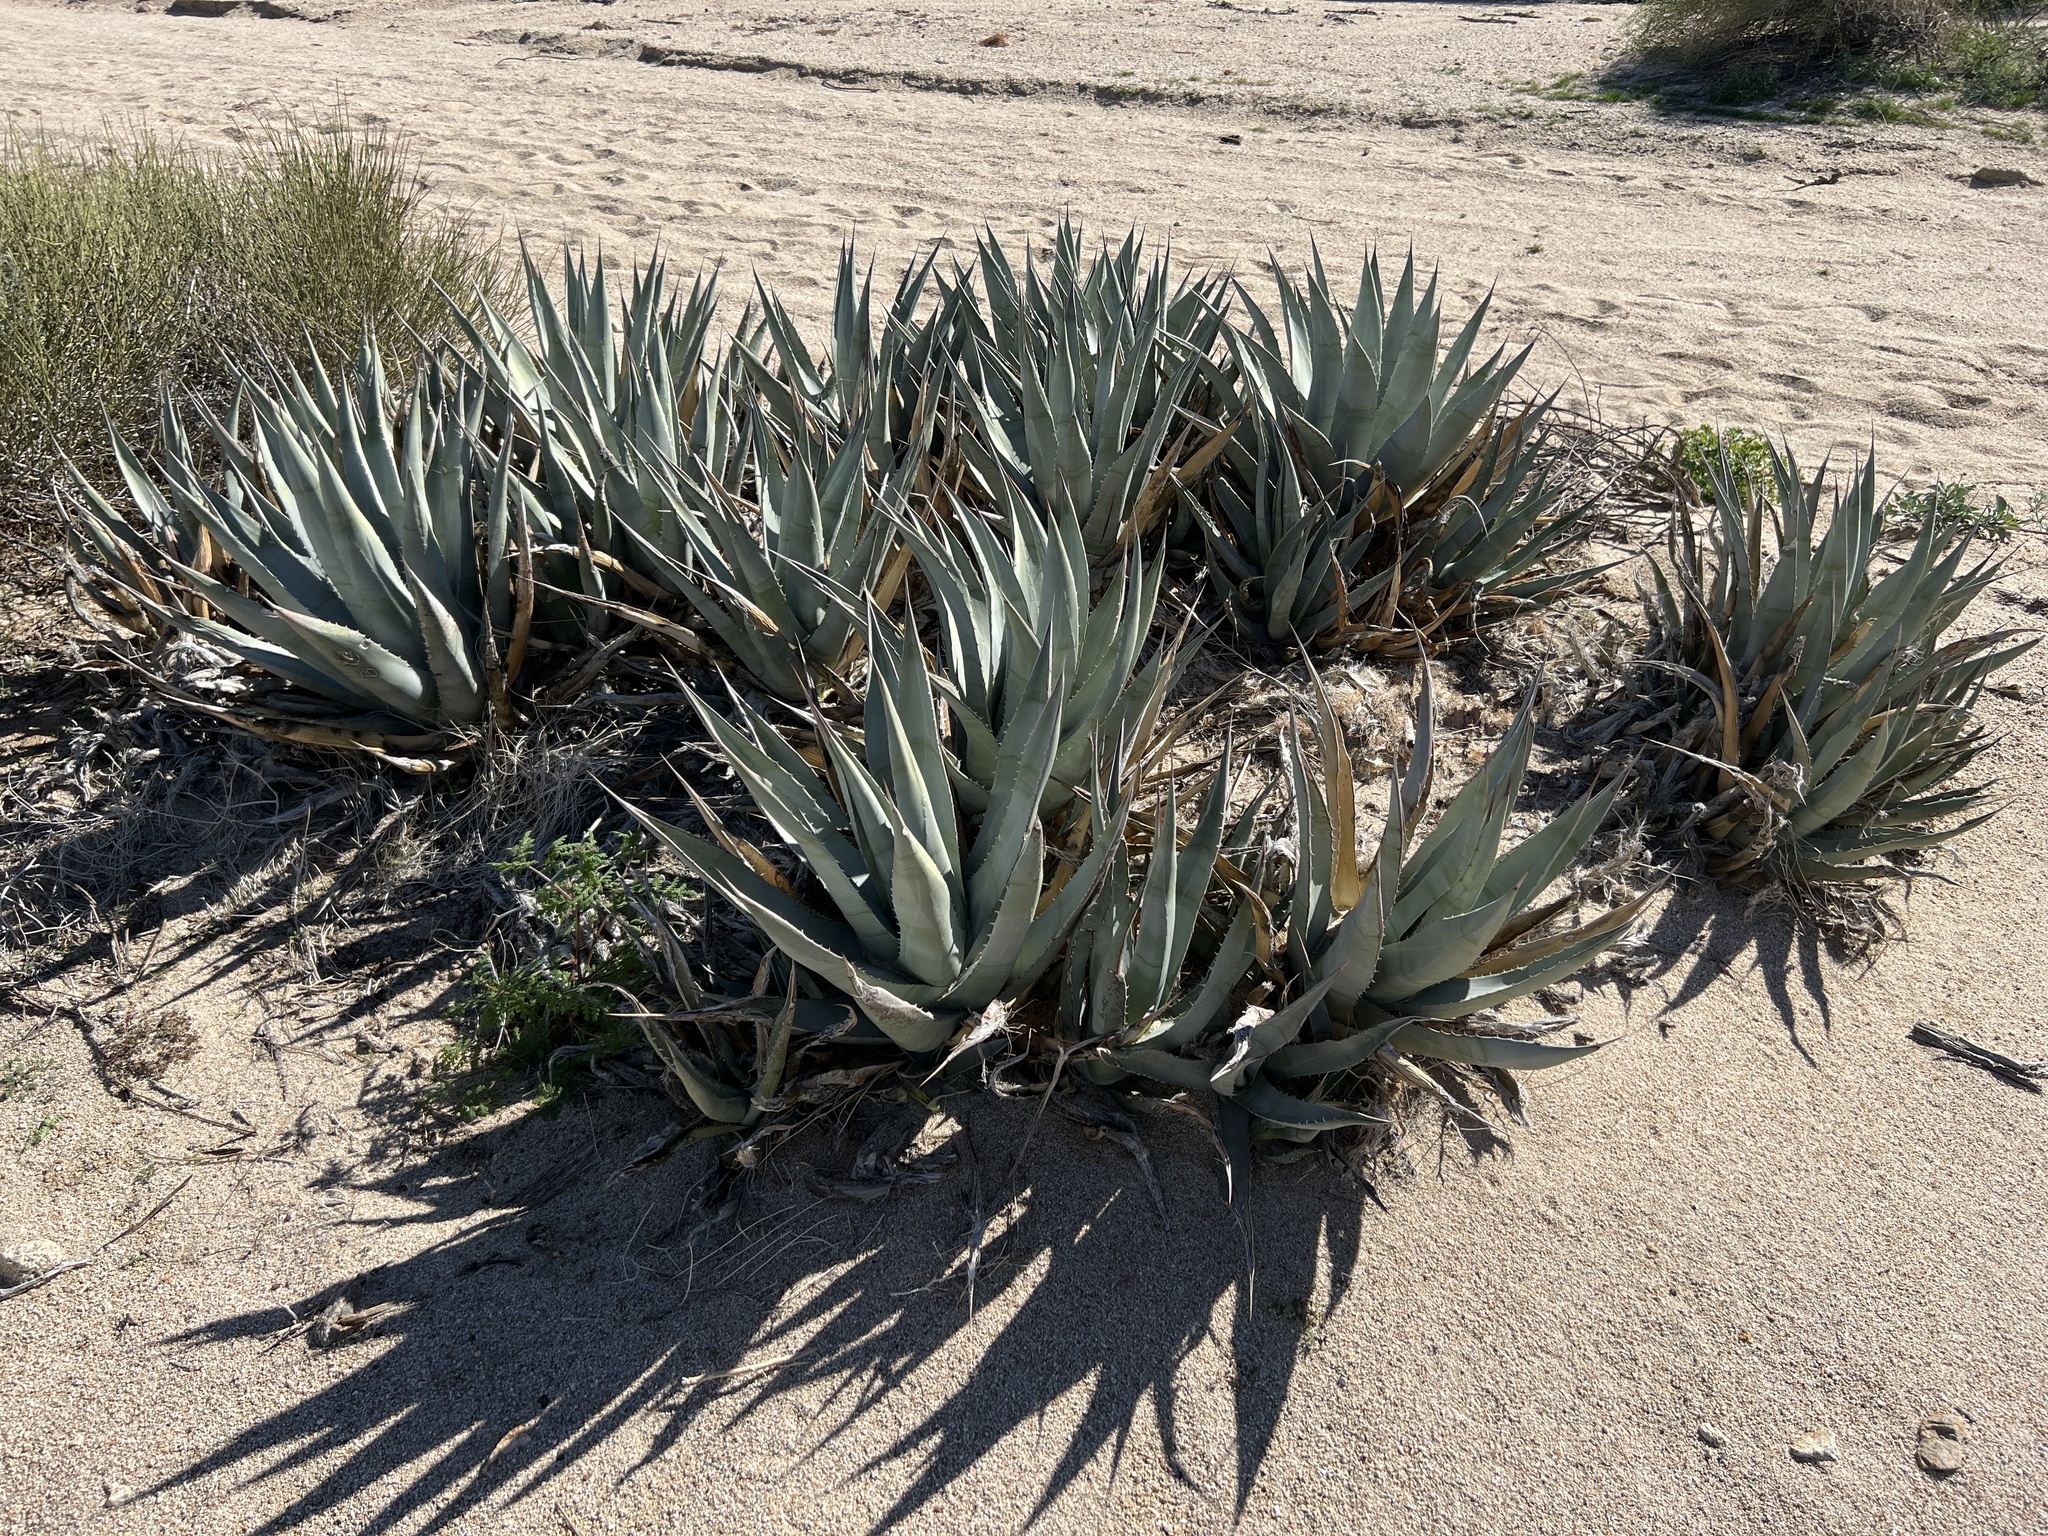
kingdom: Plantae
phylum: Tracheophyta
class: Liliopsida
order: Asparagales
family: Asparagaceae
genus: Agave
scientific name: Agave deserti
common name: Desert agave
